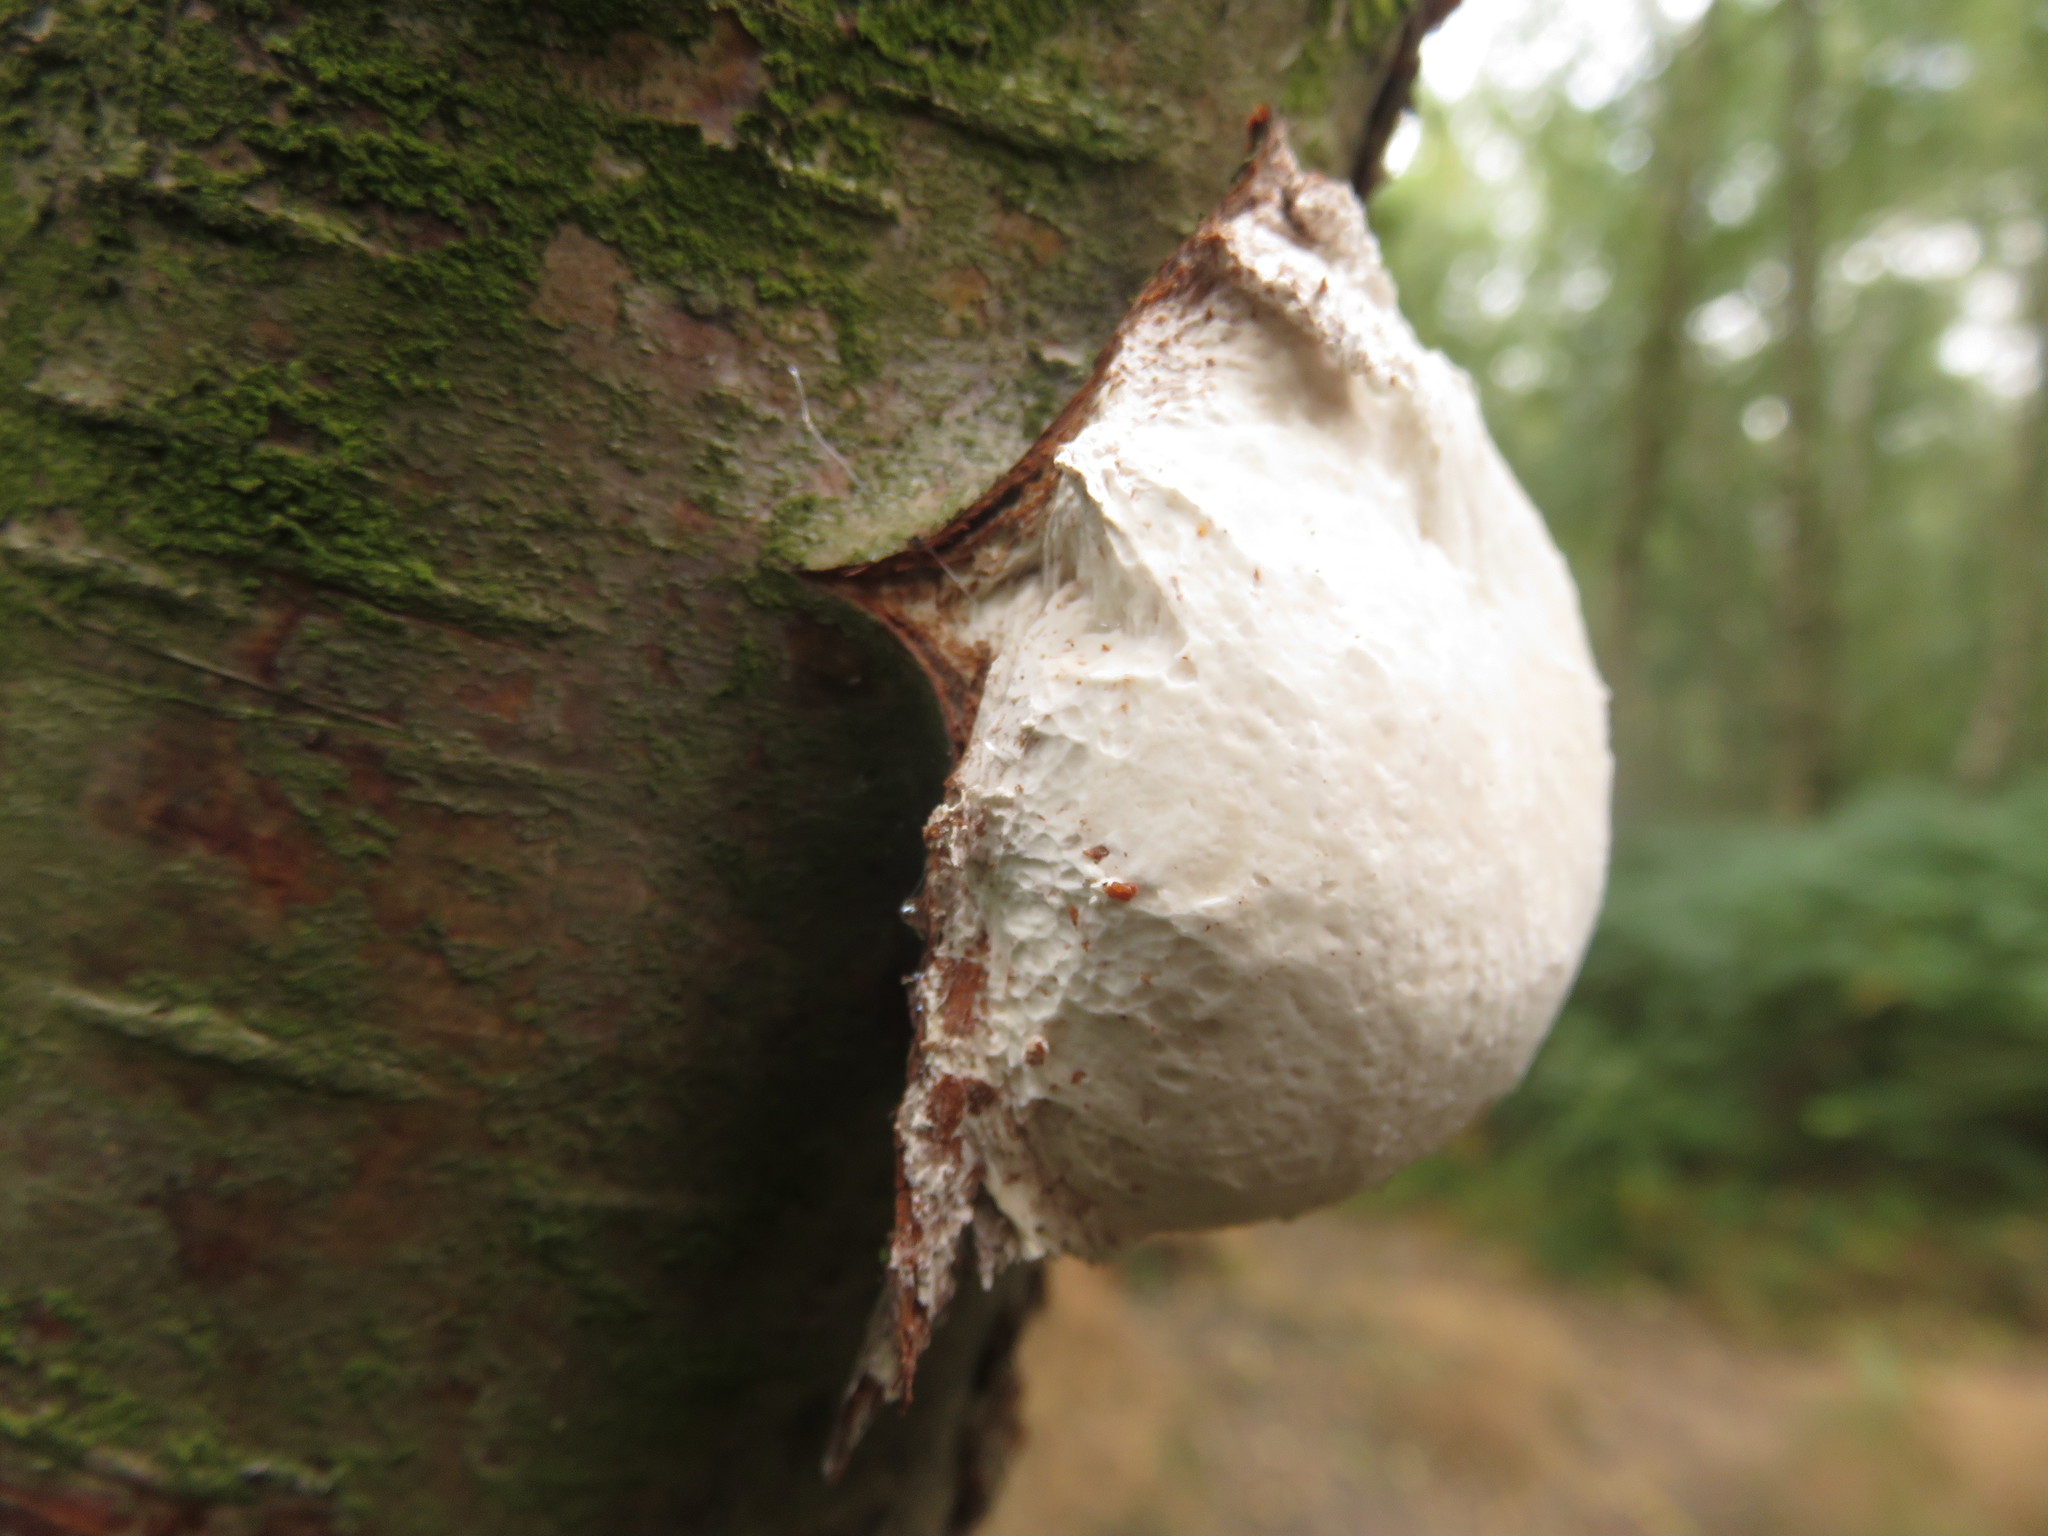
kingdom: Fungi
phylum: Basidiomycota
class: Agaricomycetes
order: Polyporales
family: Fomitopsidaceae
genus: Fomitopsis
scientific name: Fomitopsis betulina
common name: Birch polypore
